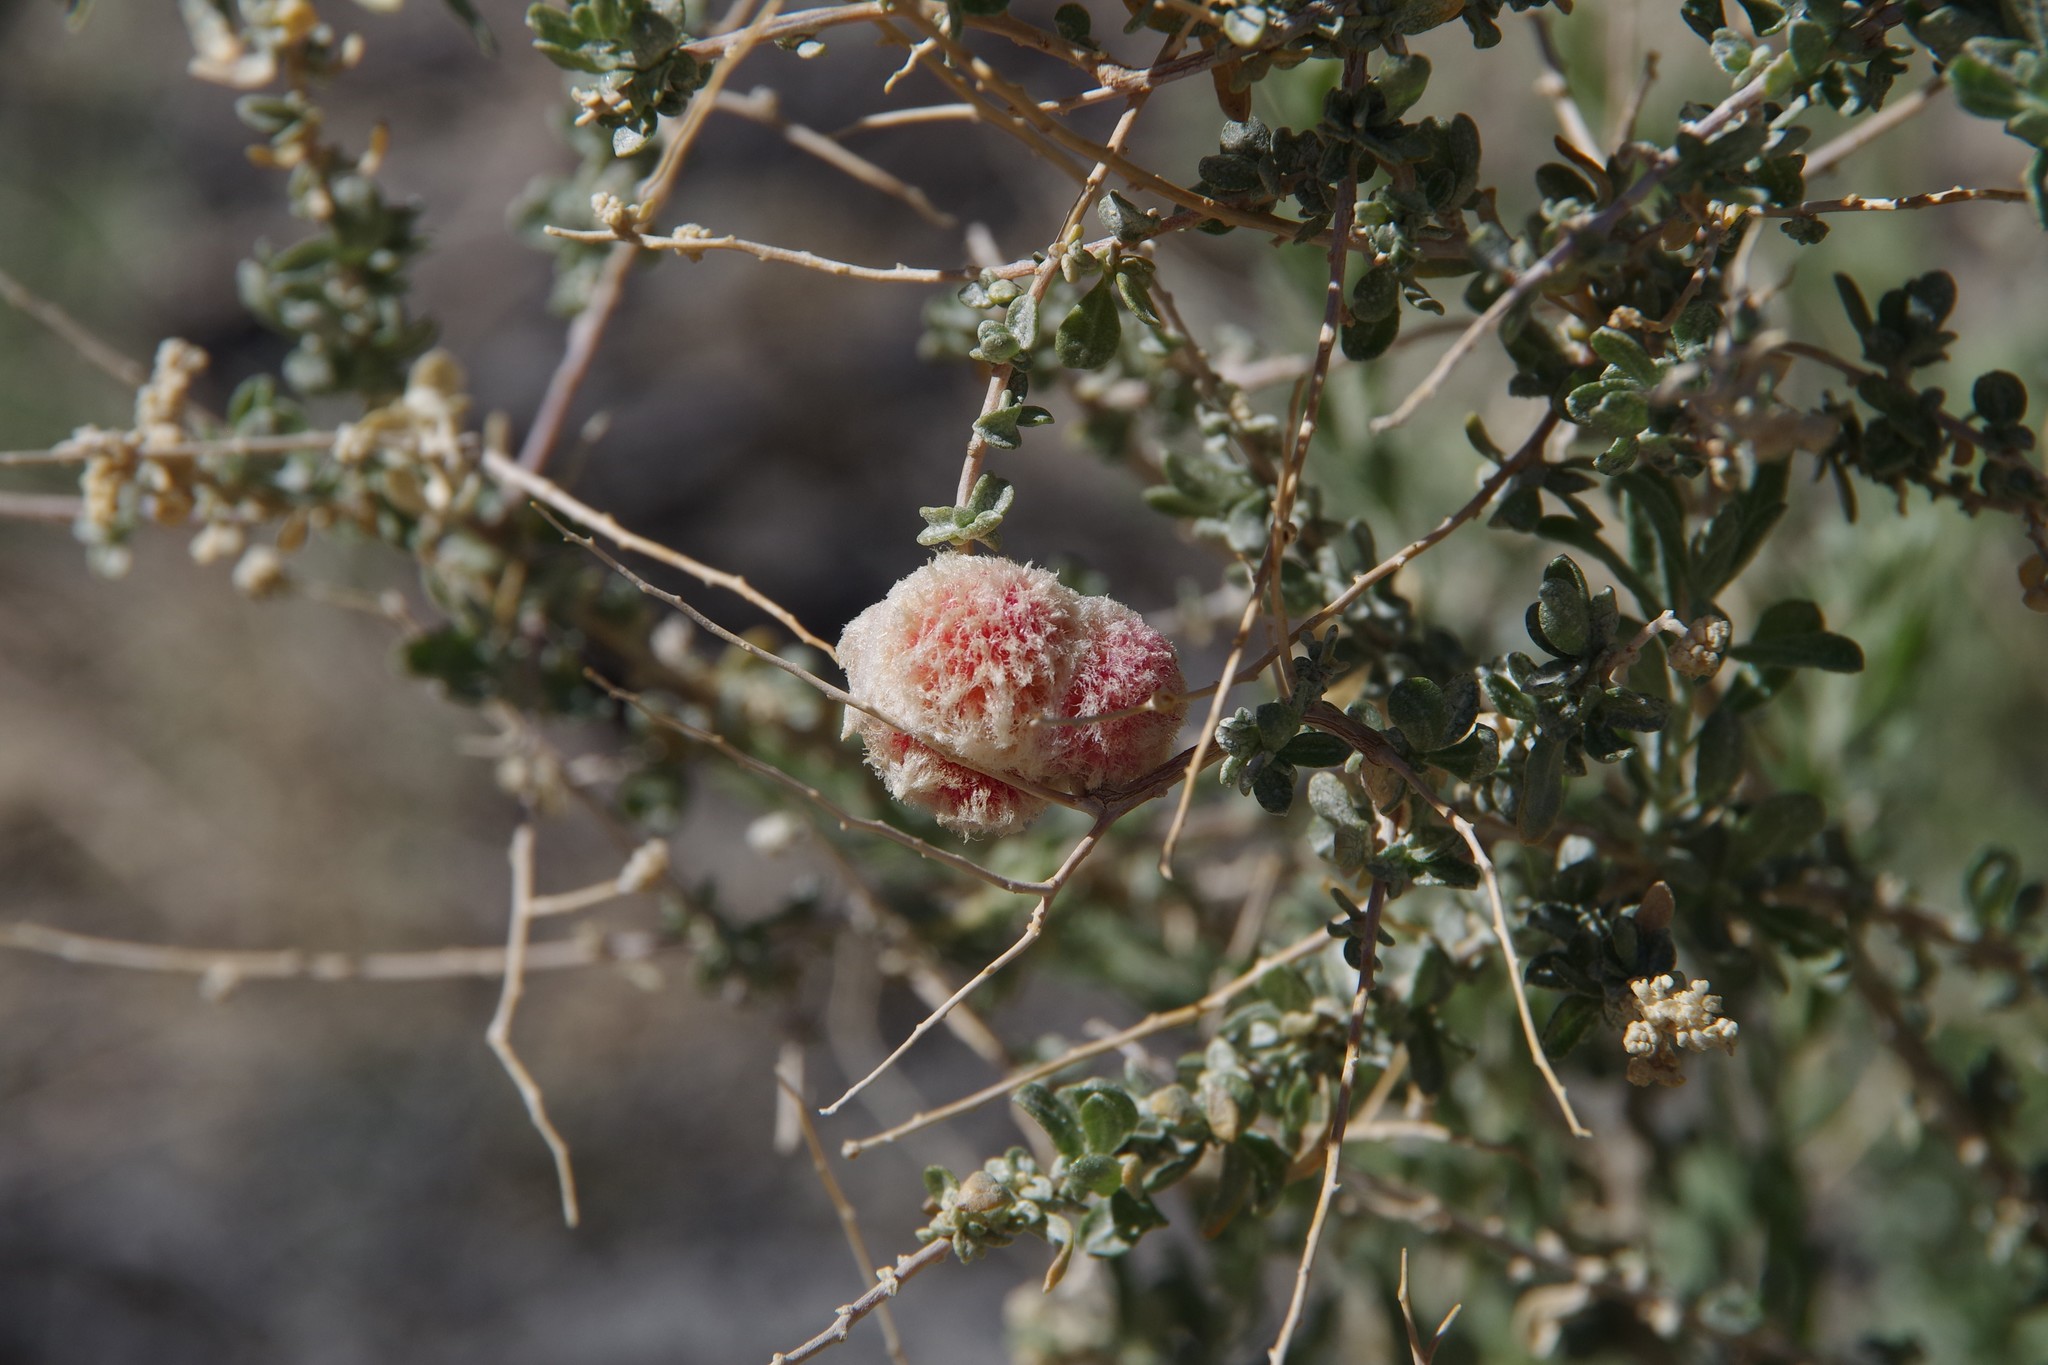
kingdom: Animalia
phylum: Arthropoda
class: Insecta
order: Diptera
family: Cecidomyiidae
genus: Asphondylia
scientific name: Asphondylia floccosa
